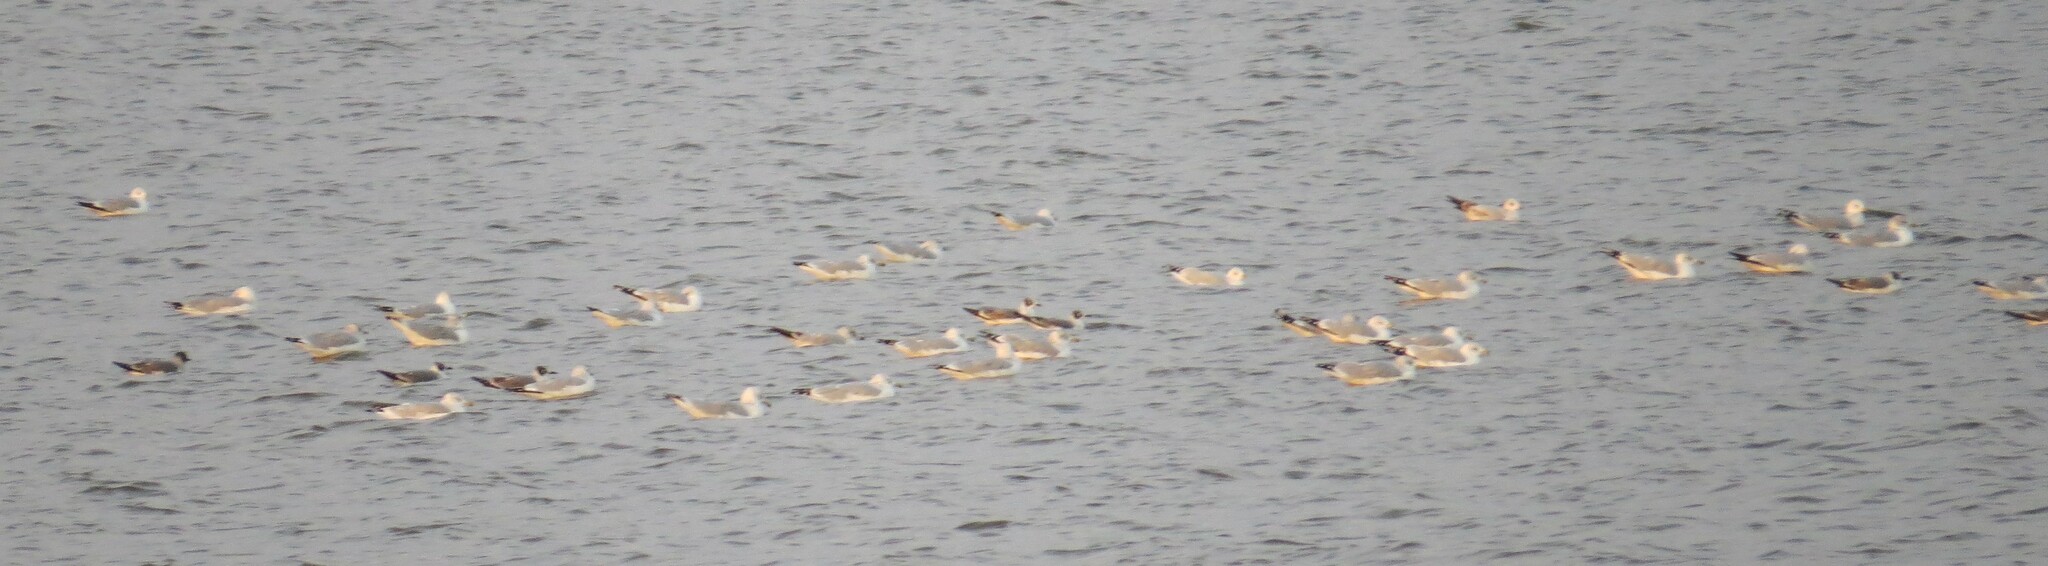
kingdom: Animalia
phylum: Chordata
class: Aves
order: Charadriiformes
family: Laridae
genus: Leucophaeus
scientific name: Leucophaeus pipixcan
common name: Franklin's gull
